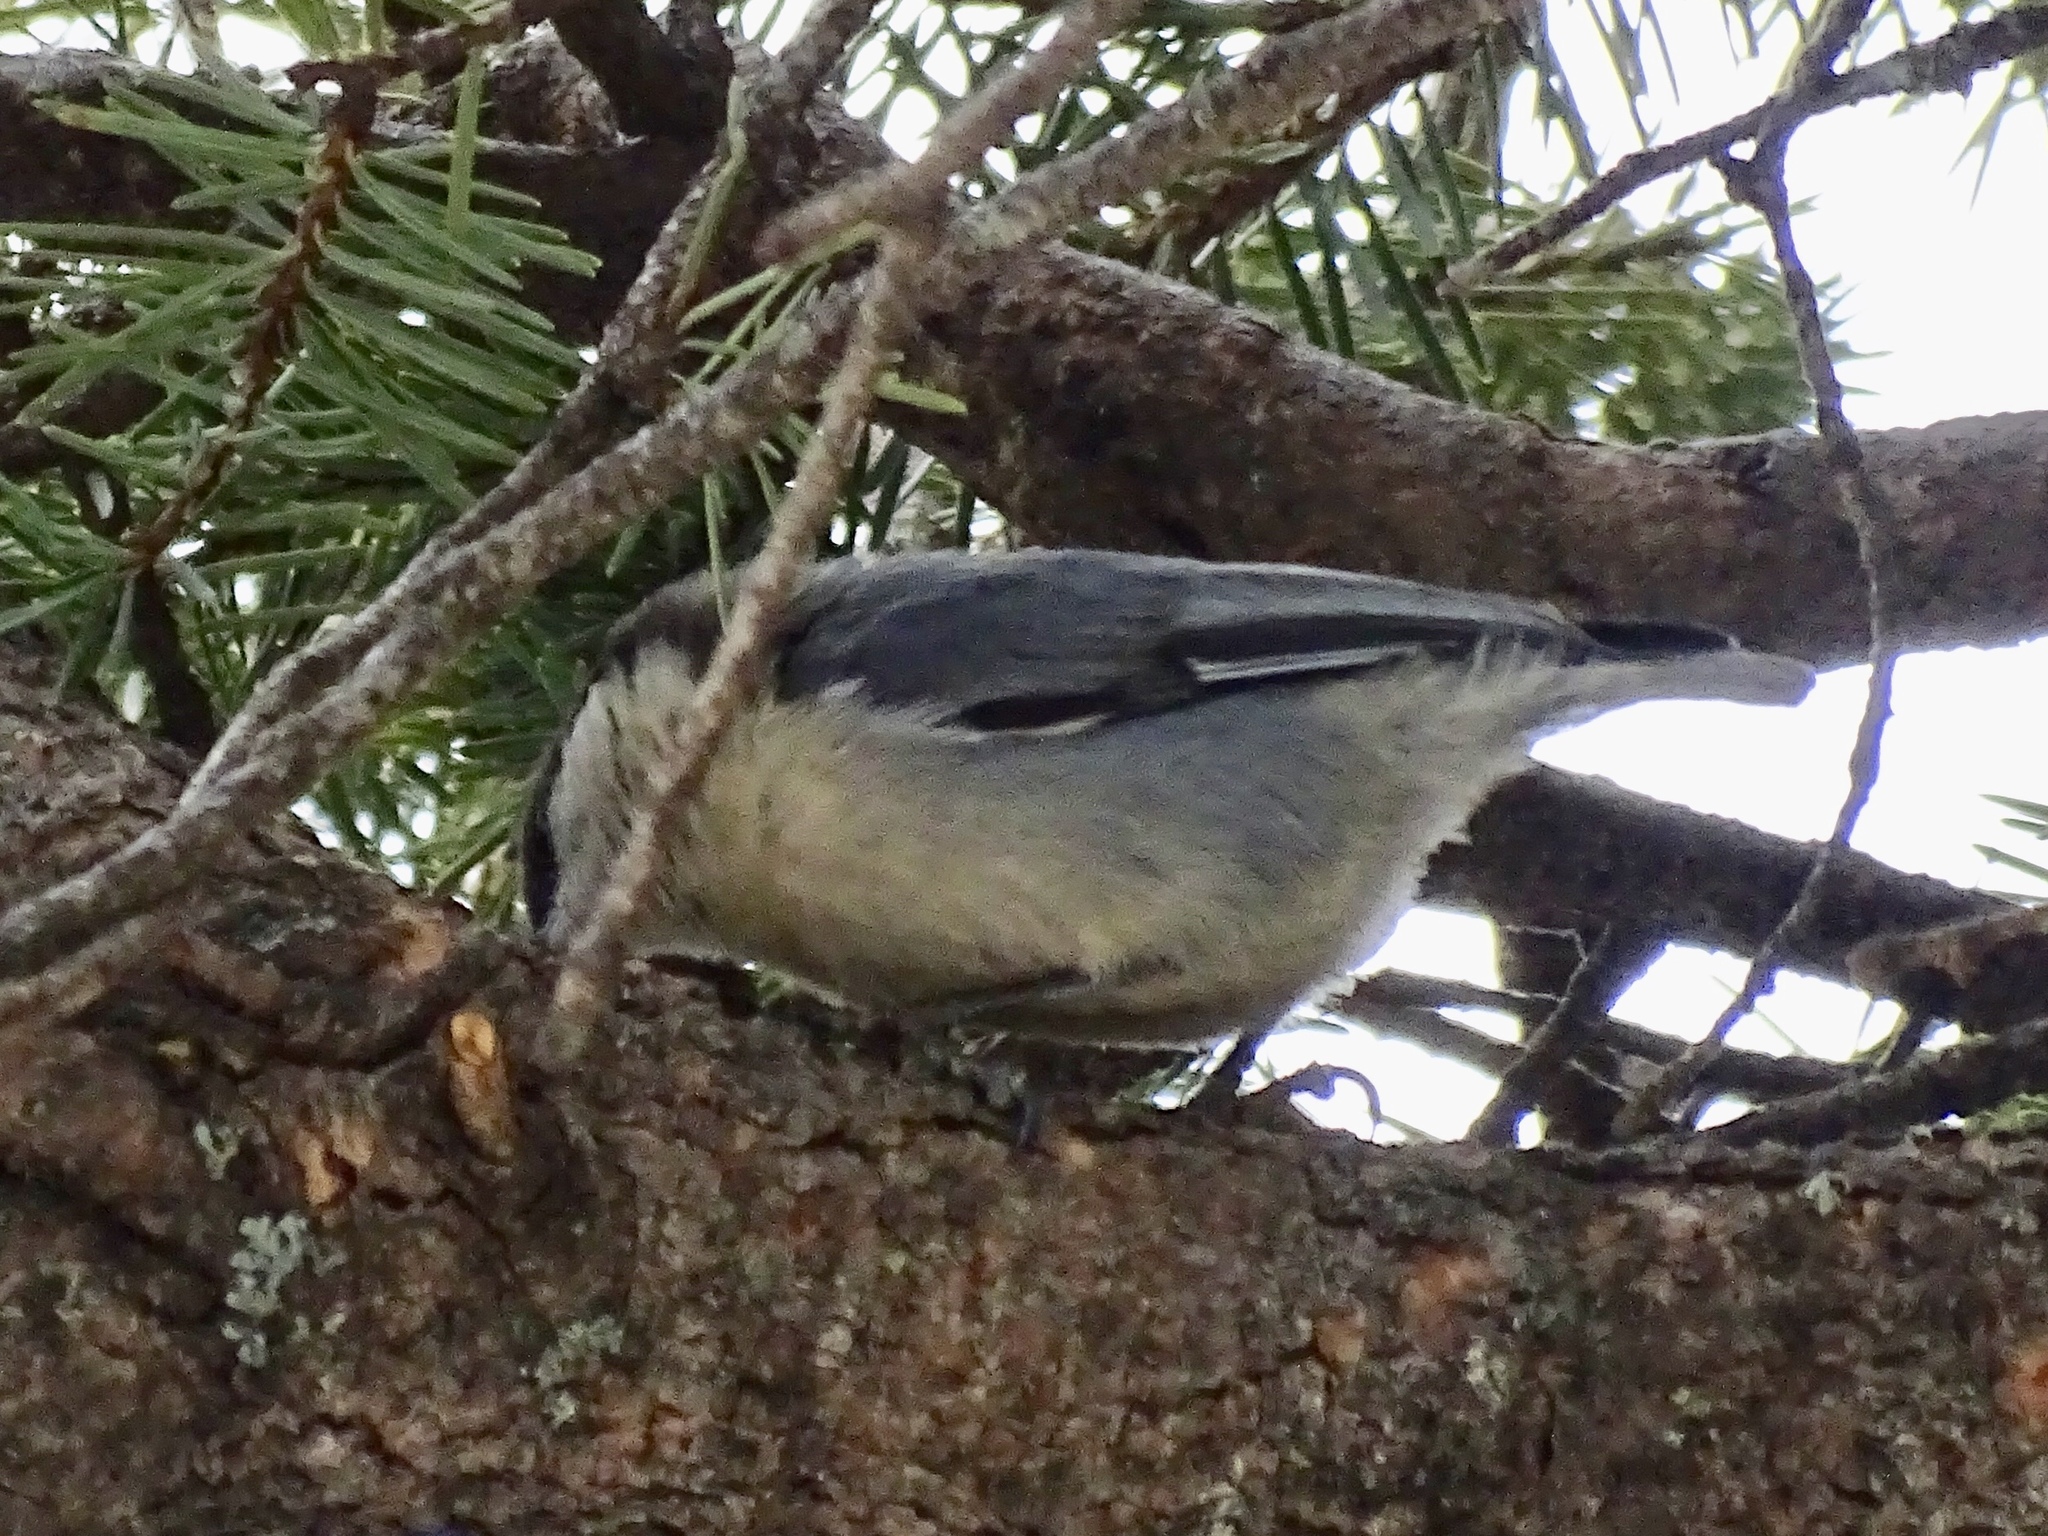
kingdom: Animalia
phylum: Chordata
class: Aves
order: Passeriformes
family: Sittidae
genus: Sitta
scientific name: Sitta pygmaea
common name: Pygmy nuthatch
